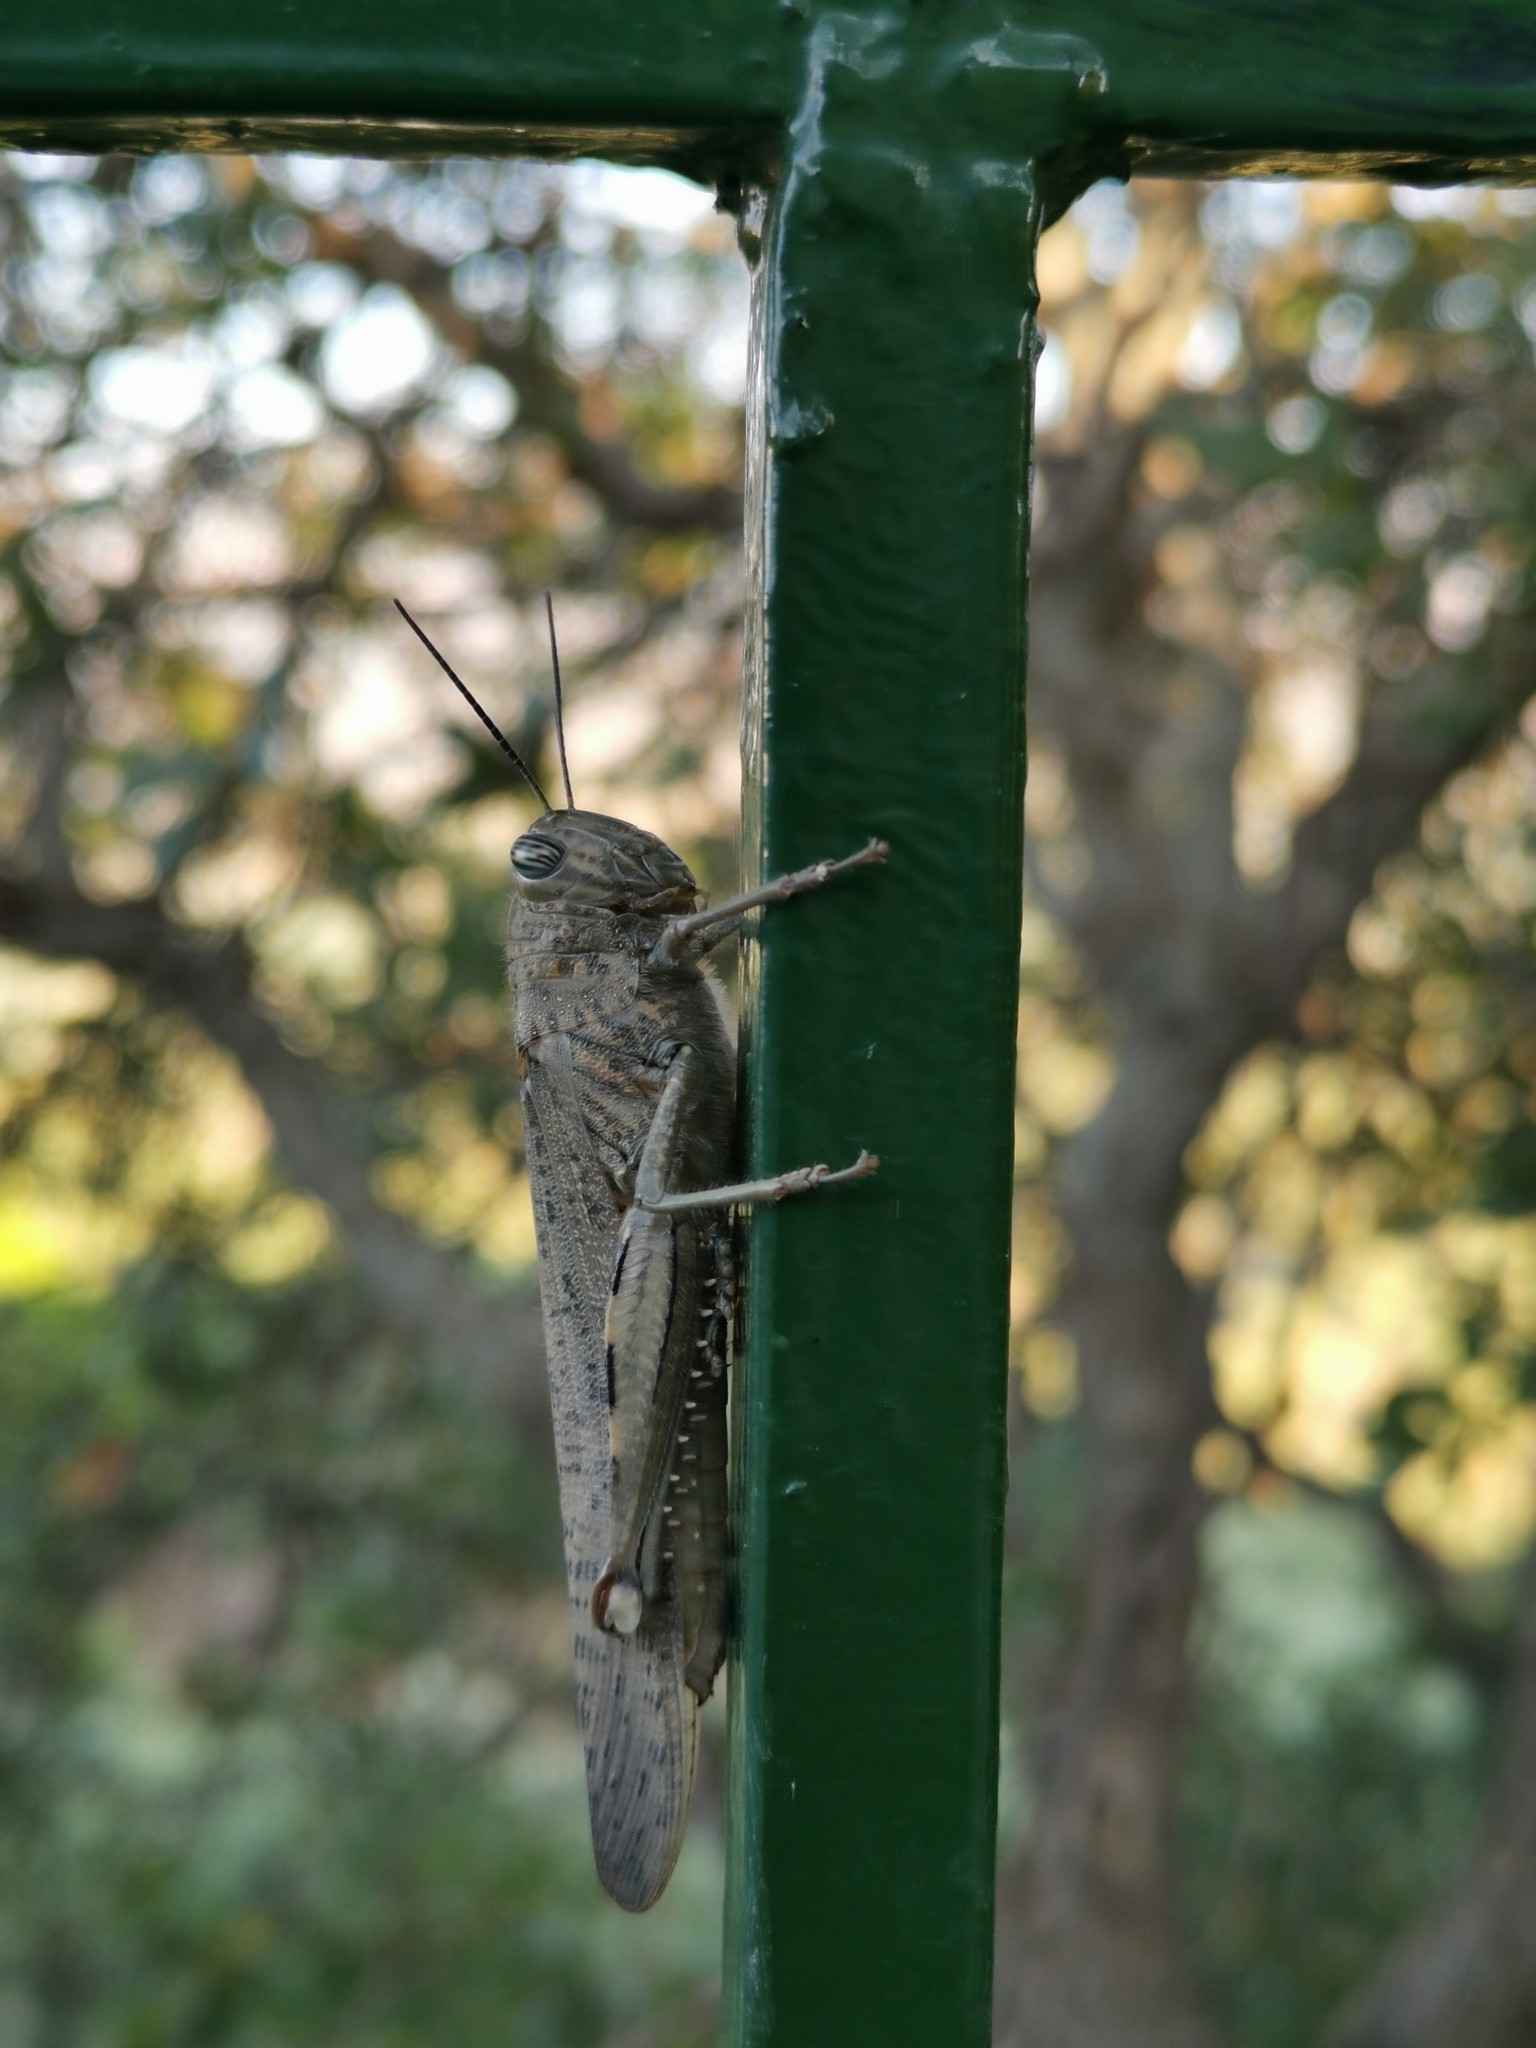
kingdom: Animalia
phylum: Arthropoda
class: Insecta
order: Orthoptera
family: Acrididae
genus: Anacridium
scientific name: Anacridium aegyptium
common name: Egyptian grasshopper
